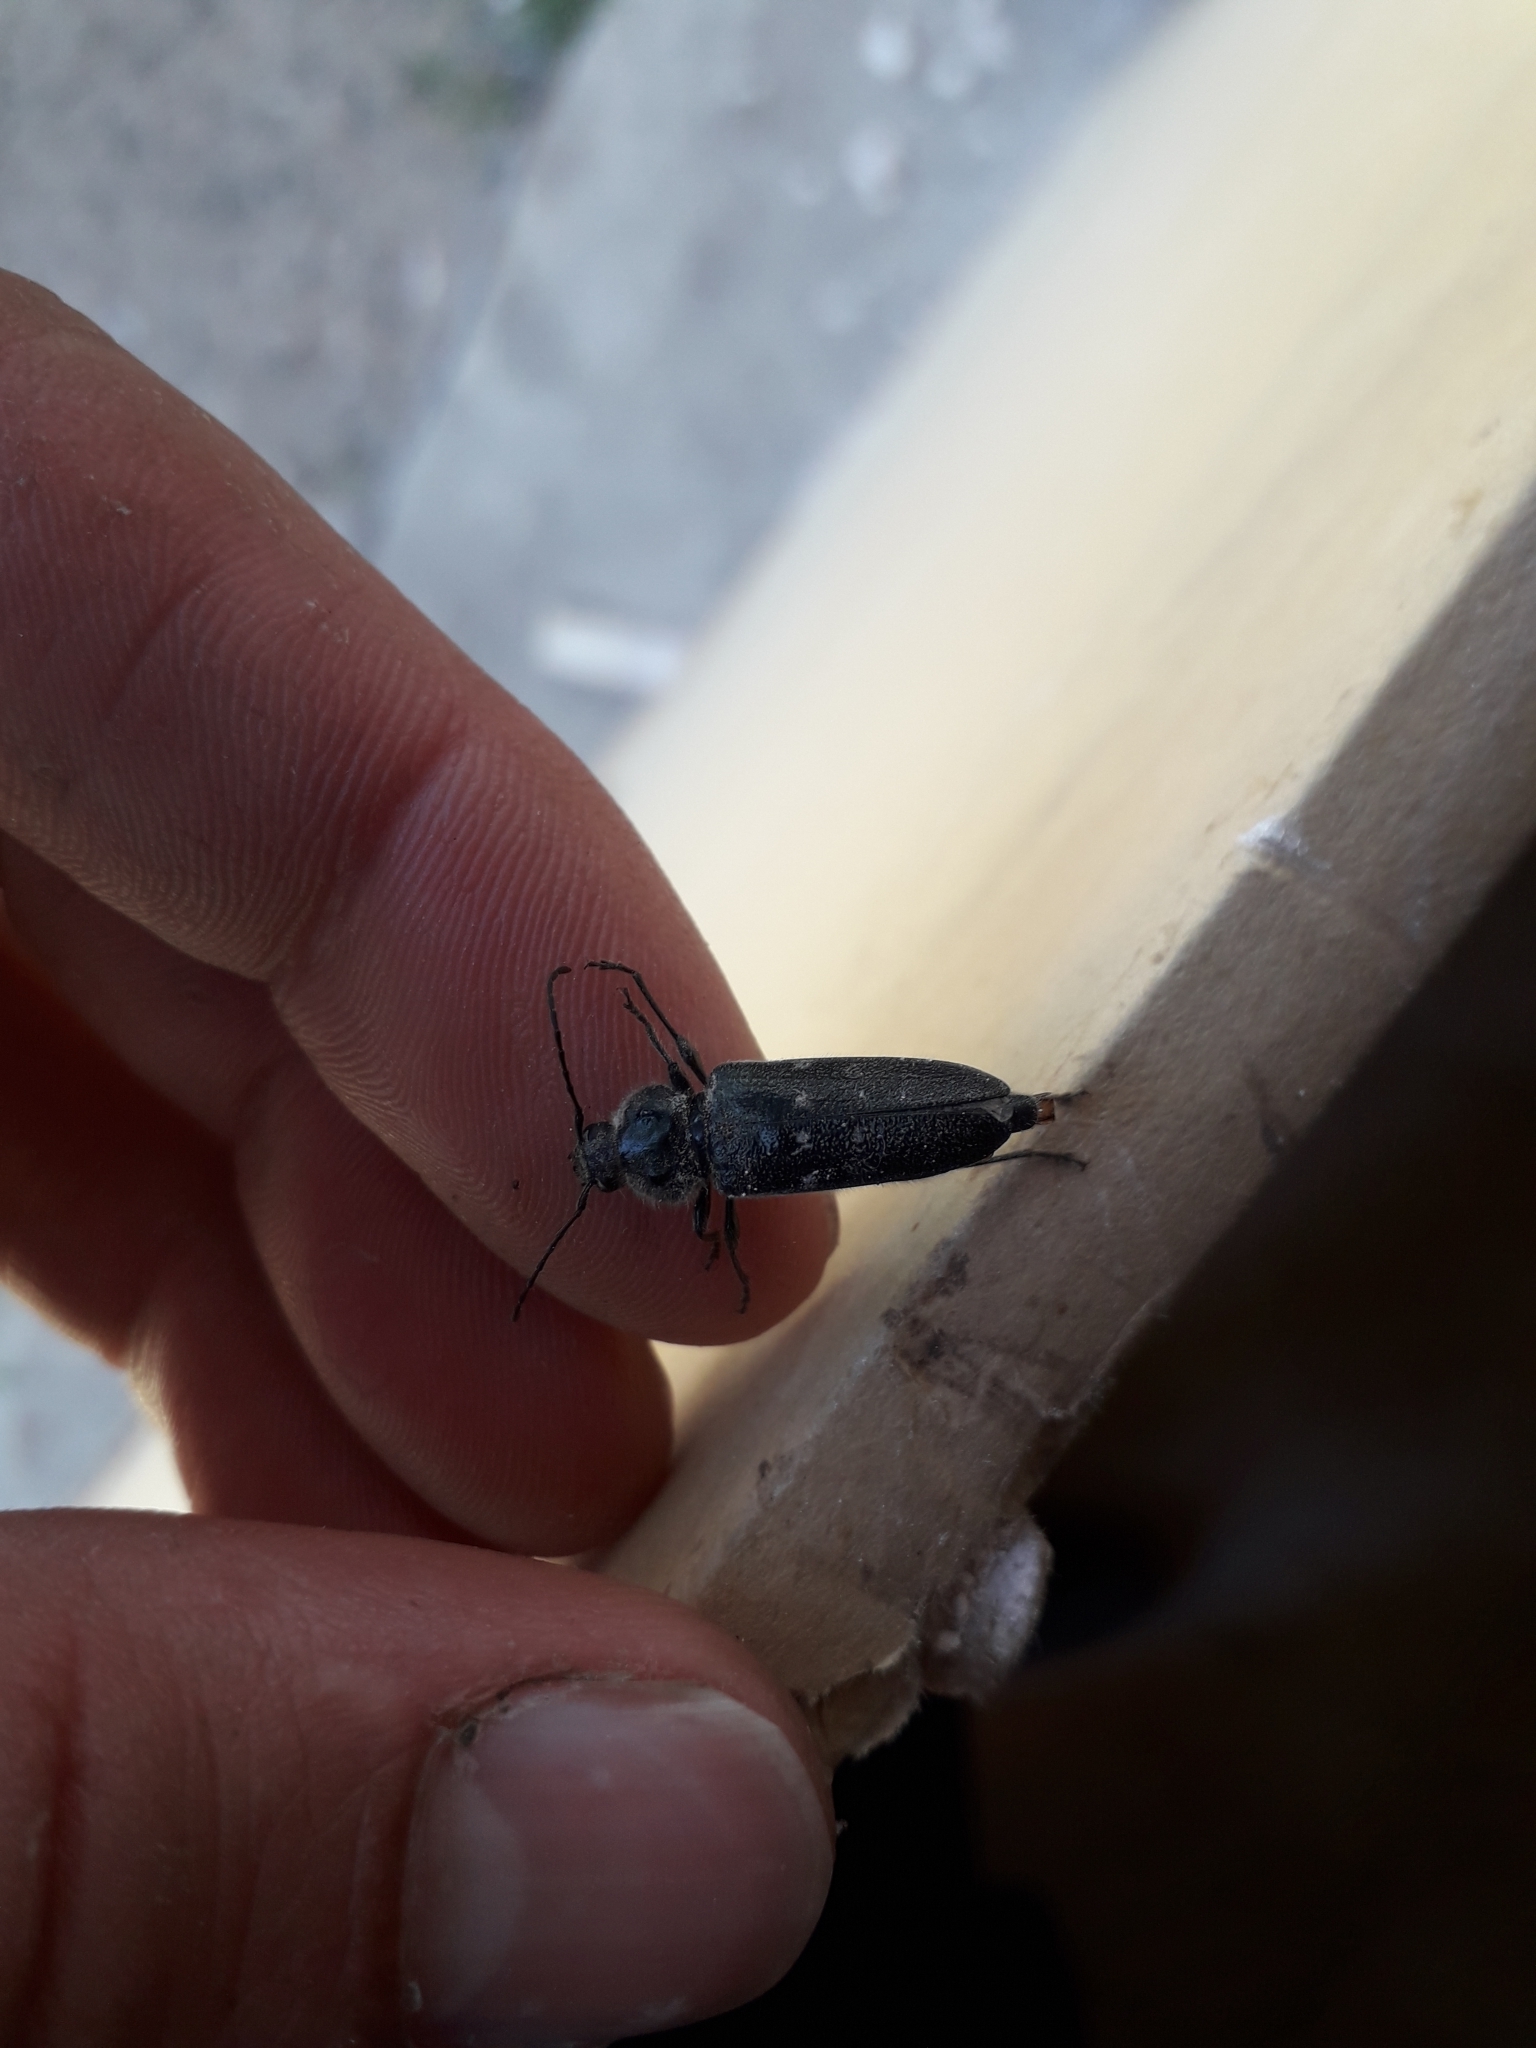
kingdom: Animalia
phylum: Arthropoda
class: Insecta
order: Coleoptera
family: Cerambycidae
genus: Hylotrupes
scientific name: Hylotrupes bajulus
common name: Old house borer
